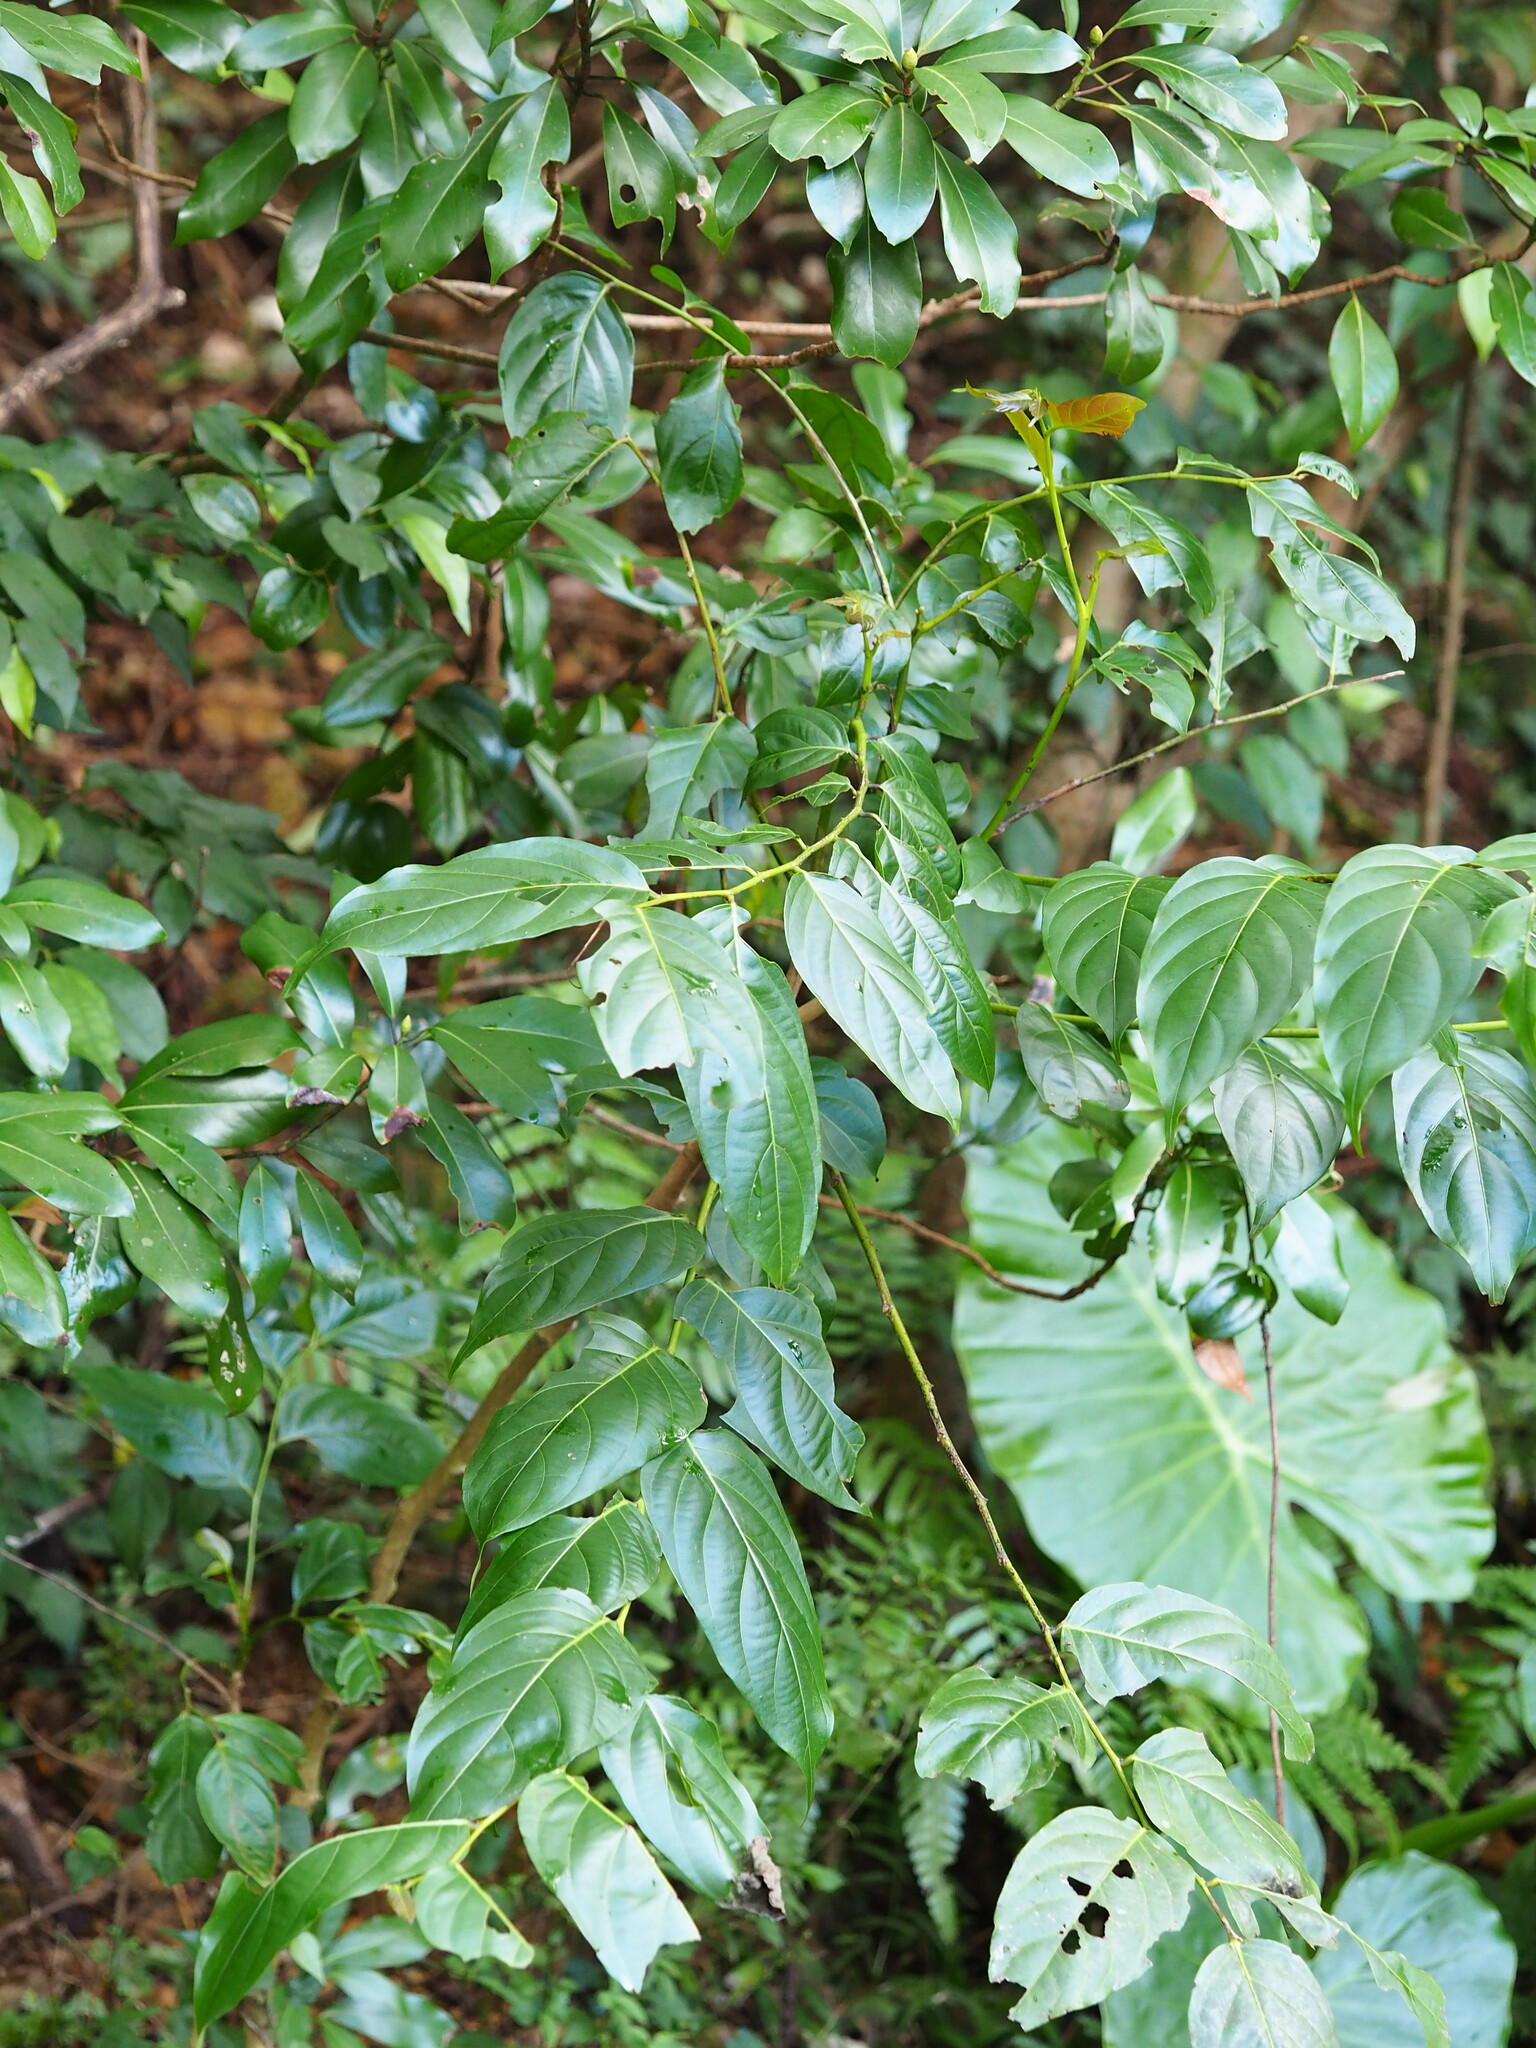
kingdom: Plantae
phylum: Tracheophyta
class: Magnoliopsida
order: Malpighiales
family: Phyllanthaceae
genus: Glochidion
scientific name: Glochidion zeylanicum
